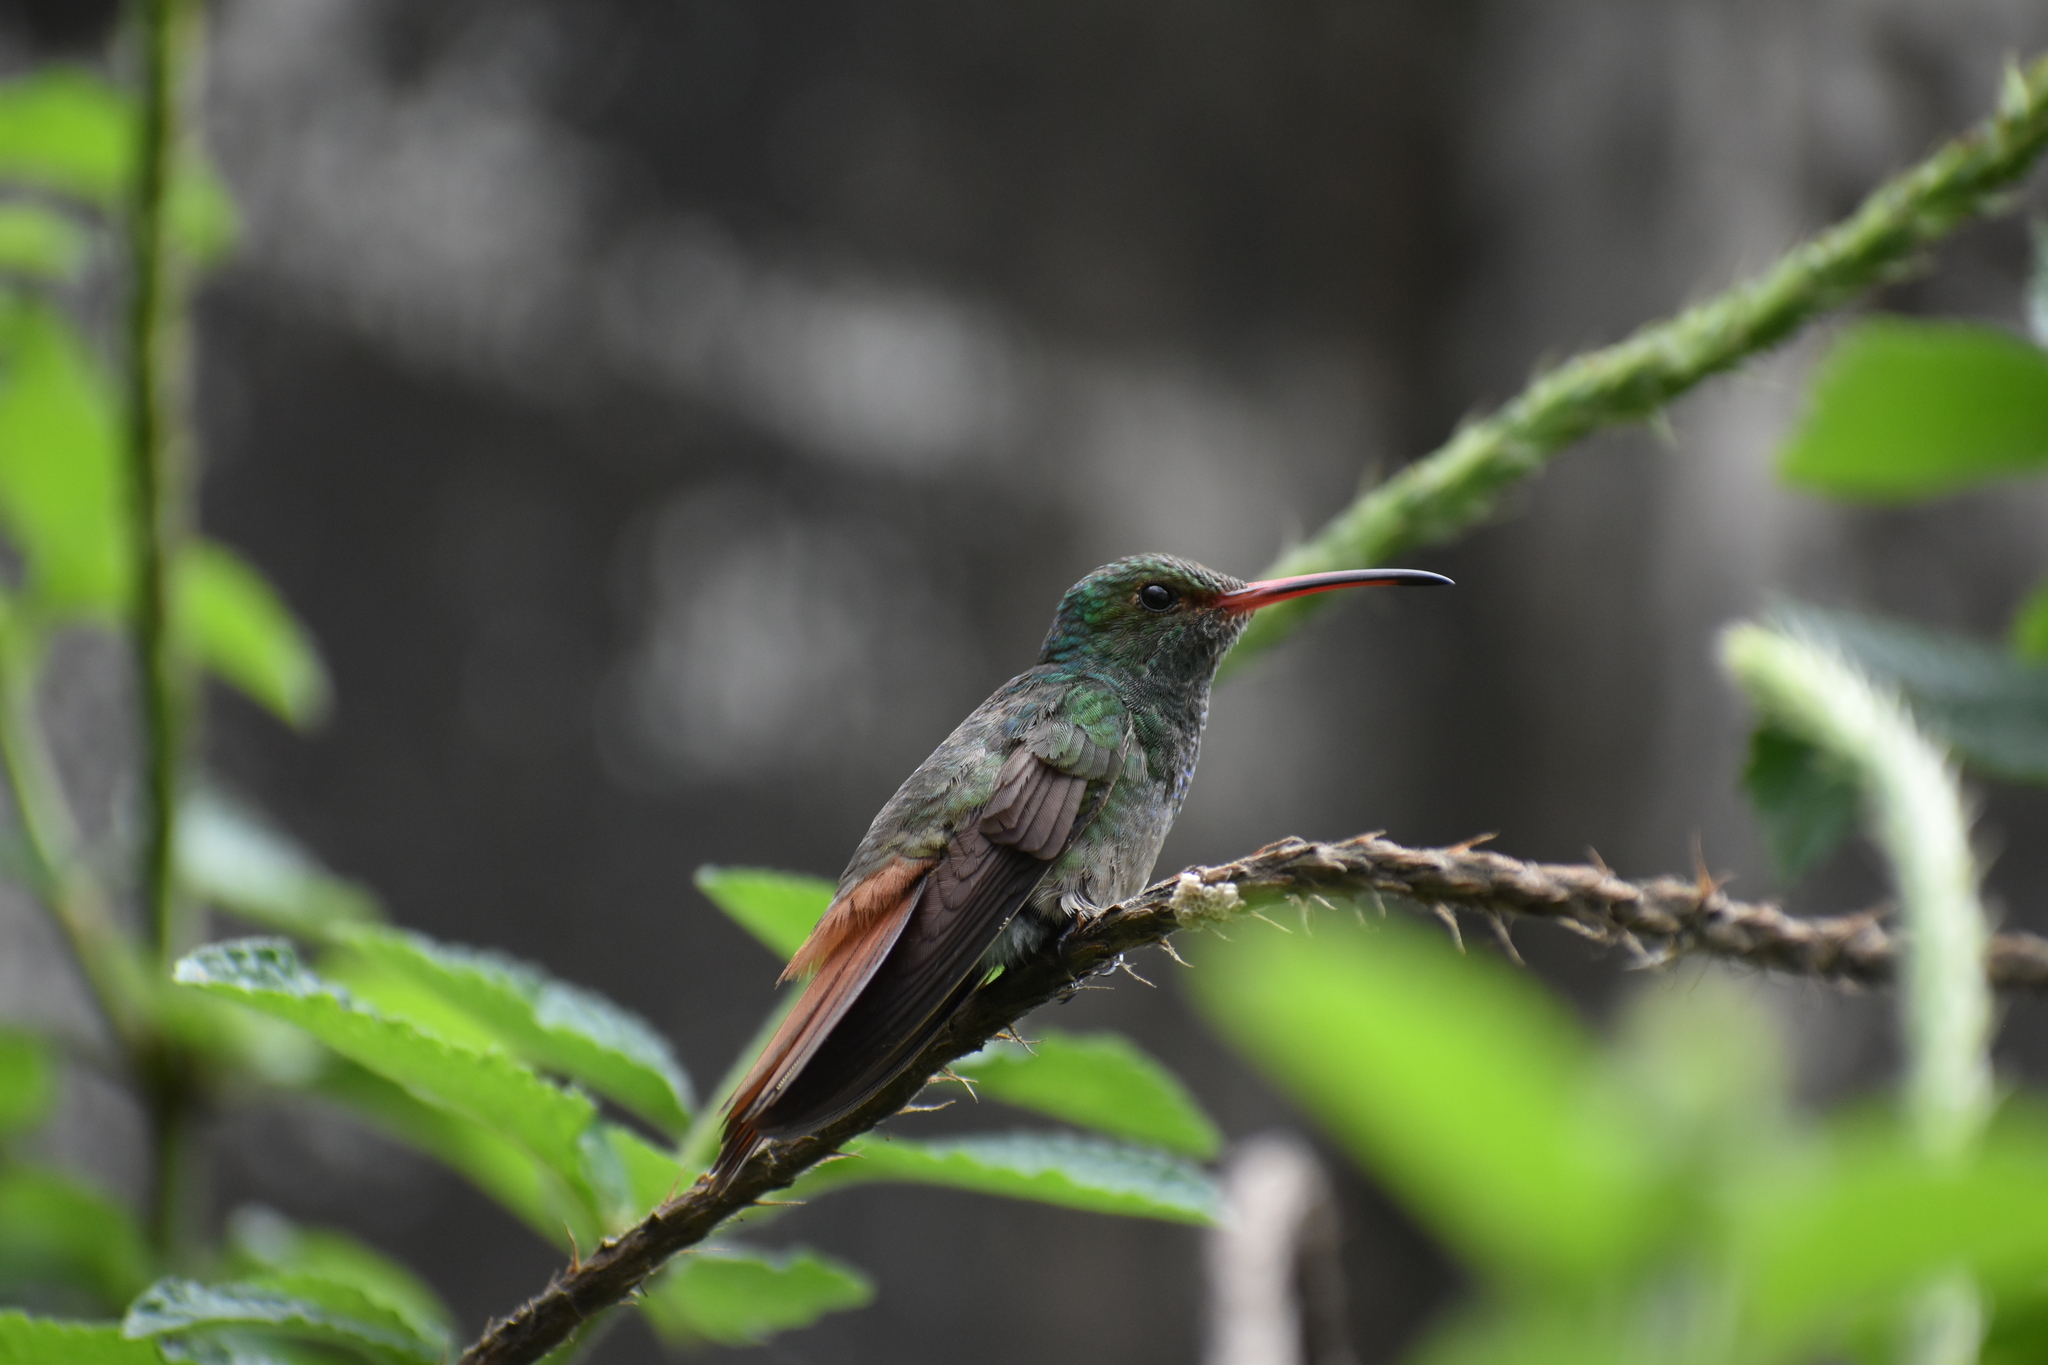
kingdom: Animalia
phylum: Chordata
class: Aves
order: Apodiformes
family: Trochilidae
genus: Amazilia
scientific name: Amazilia tzacatl
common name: Rufous-tailed hummingbird
